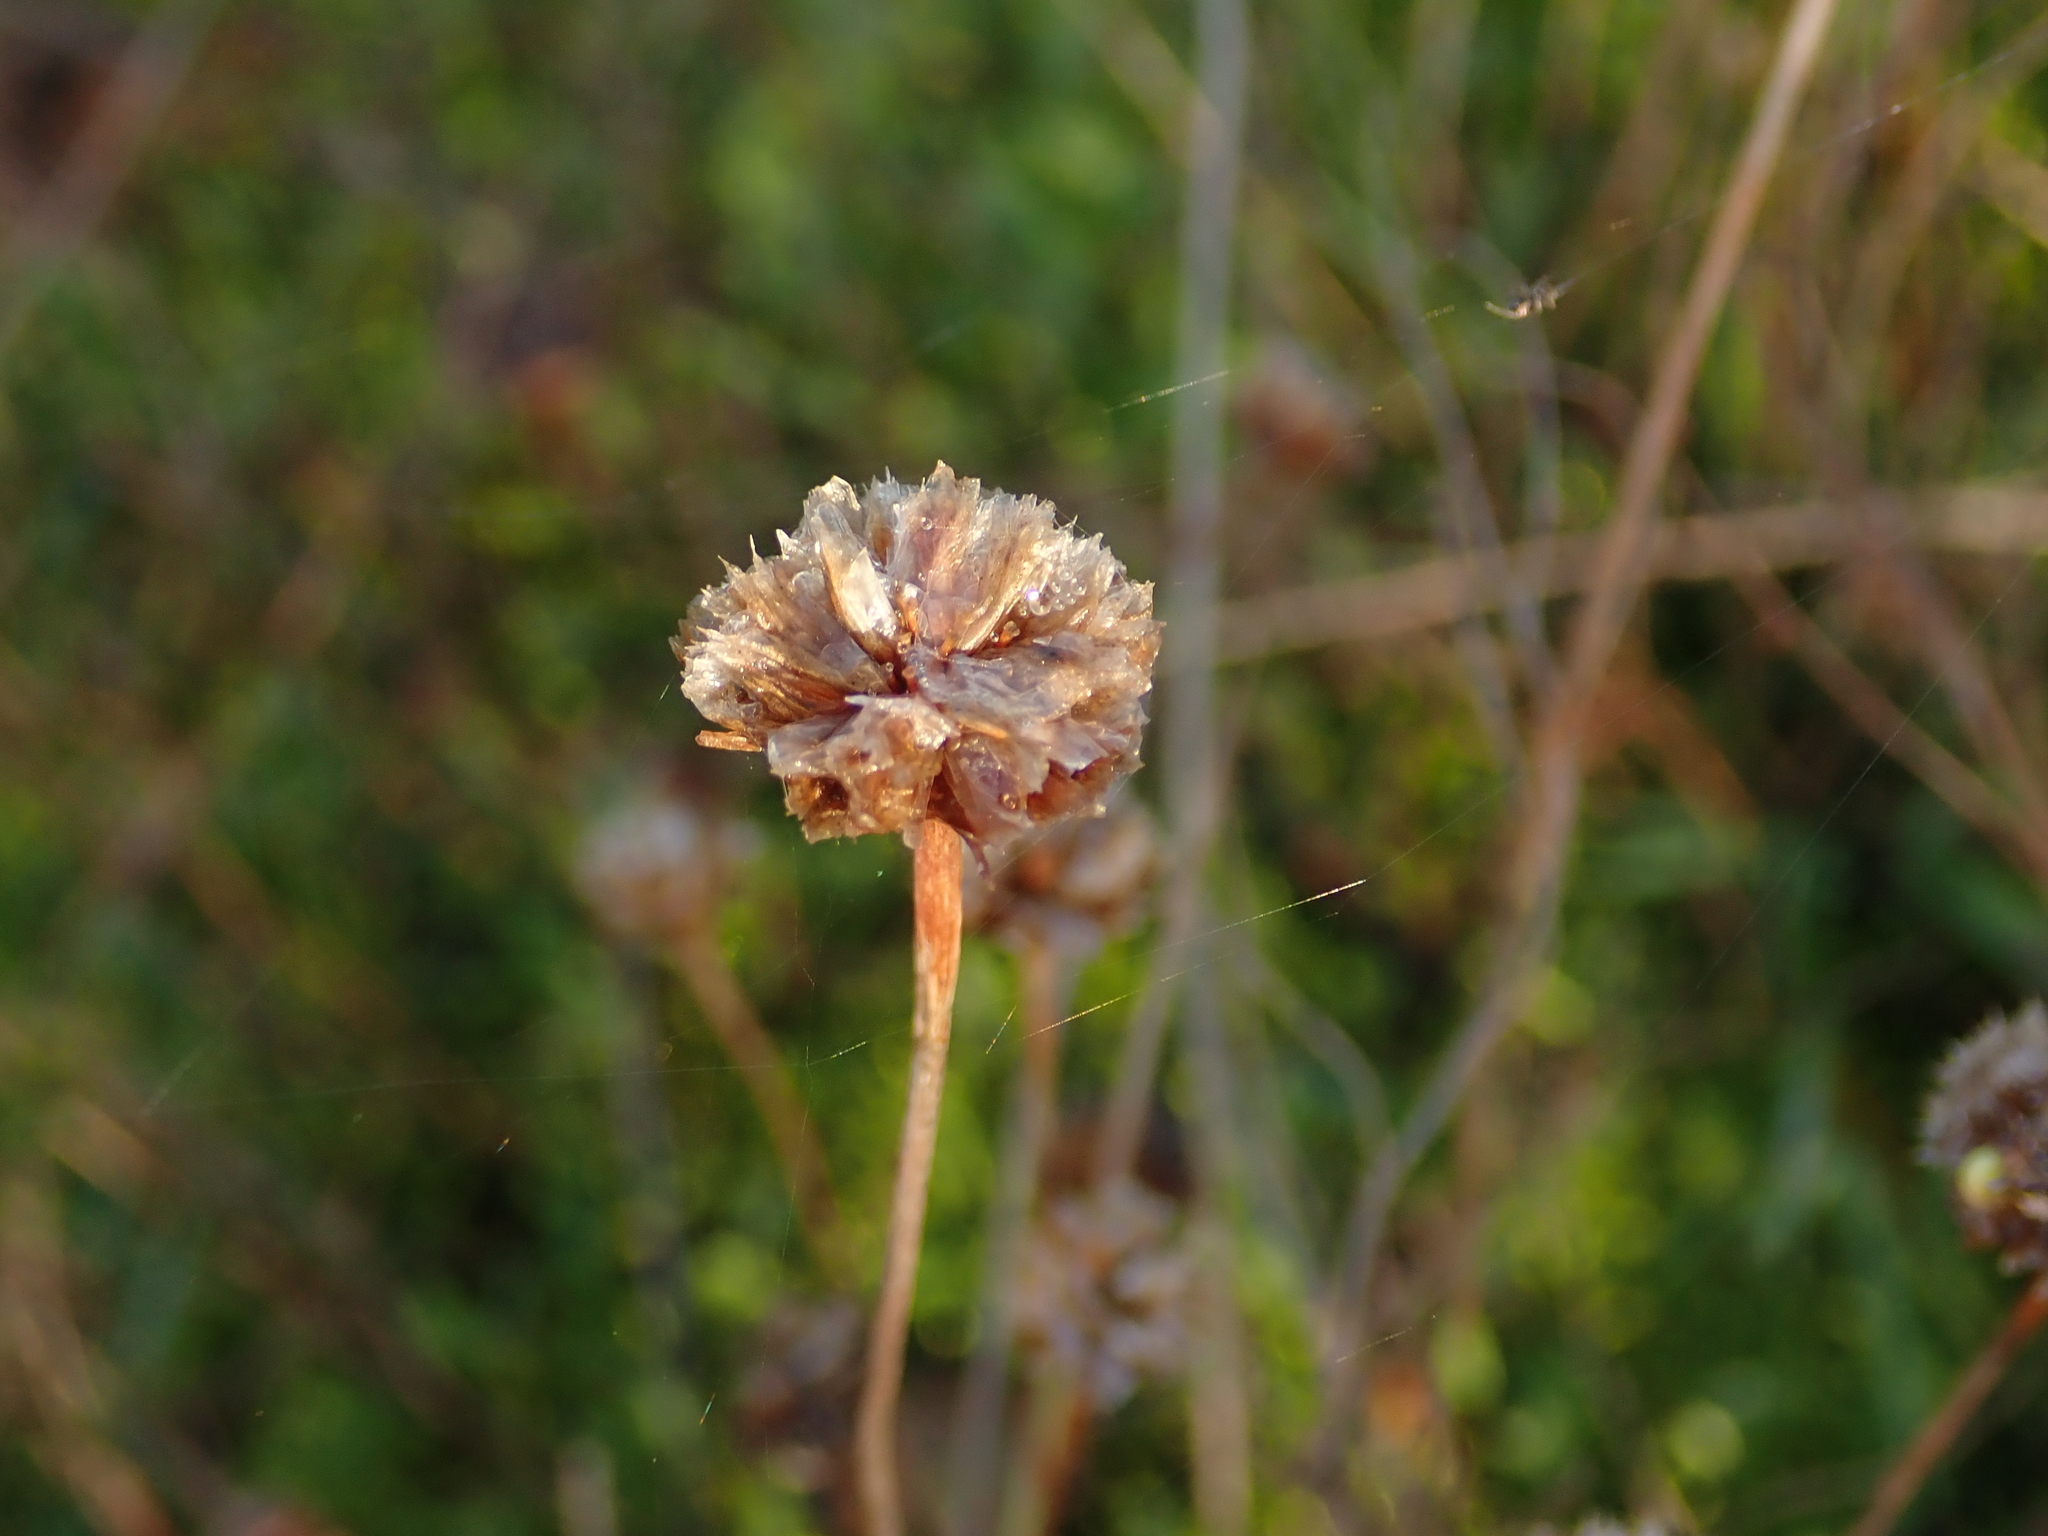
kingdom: Plantae
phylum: Tracheophyta
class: Magnoliopsida
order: Caryophyllales
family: Plumbaginaceae
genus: Armeria
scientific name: Armeria maritima
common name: Thrift
